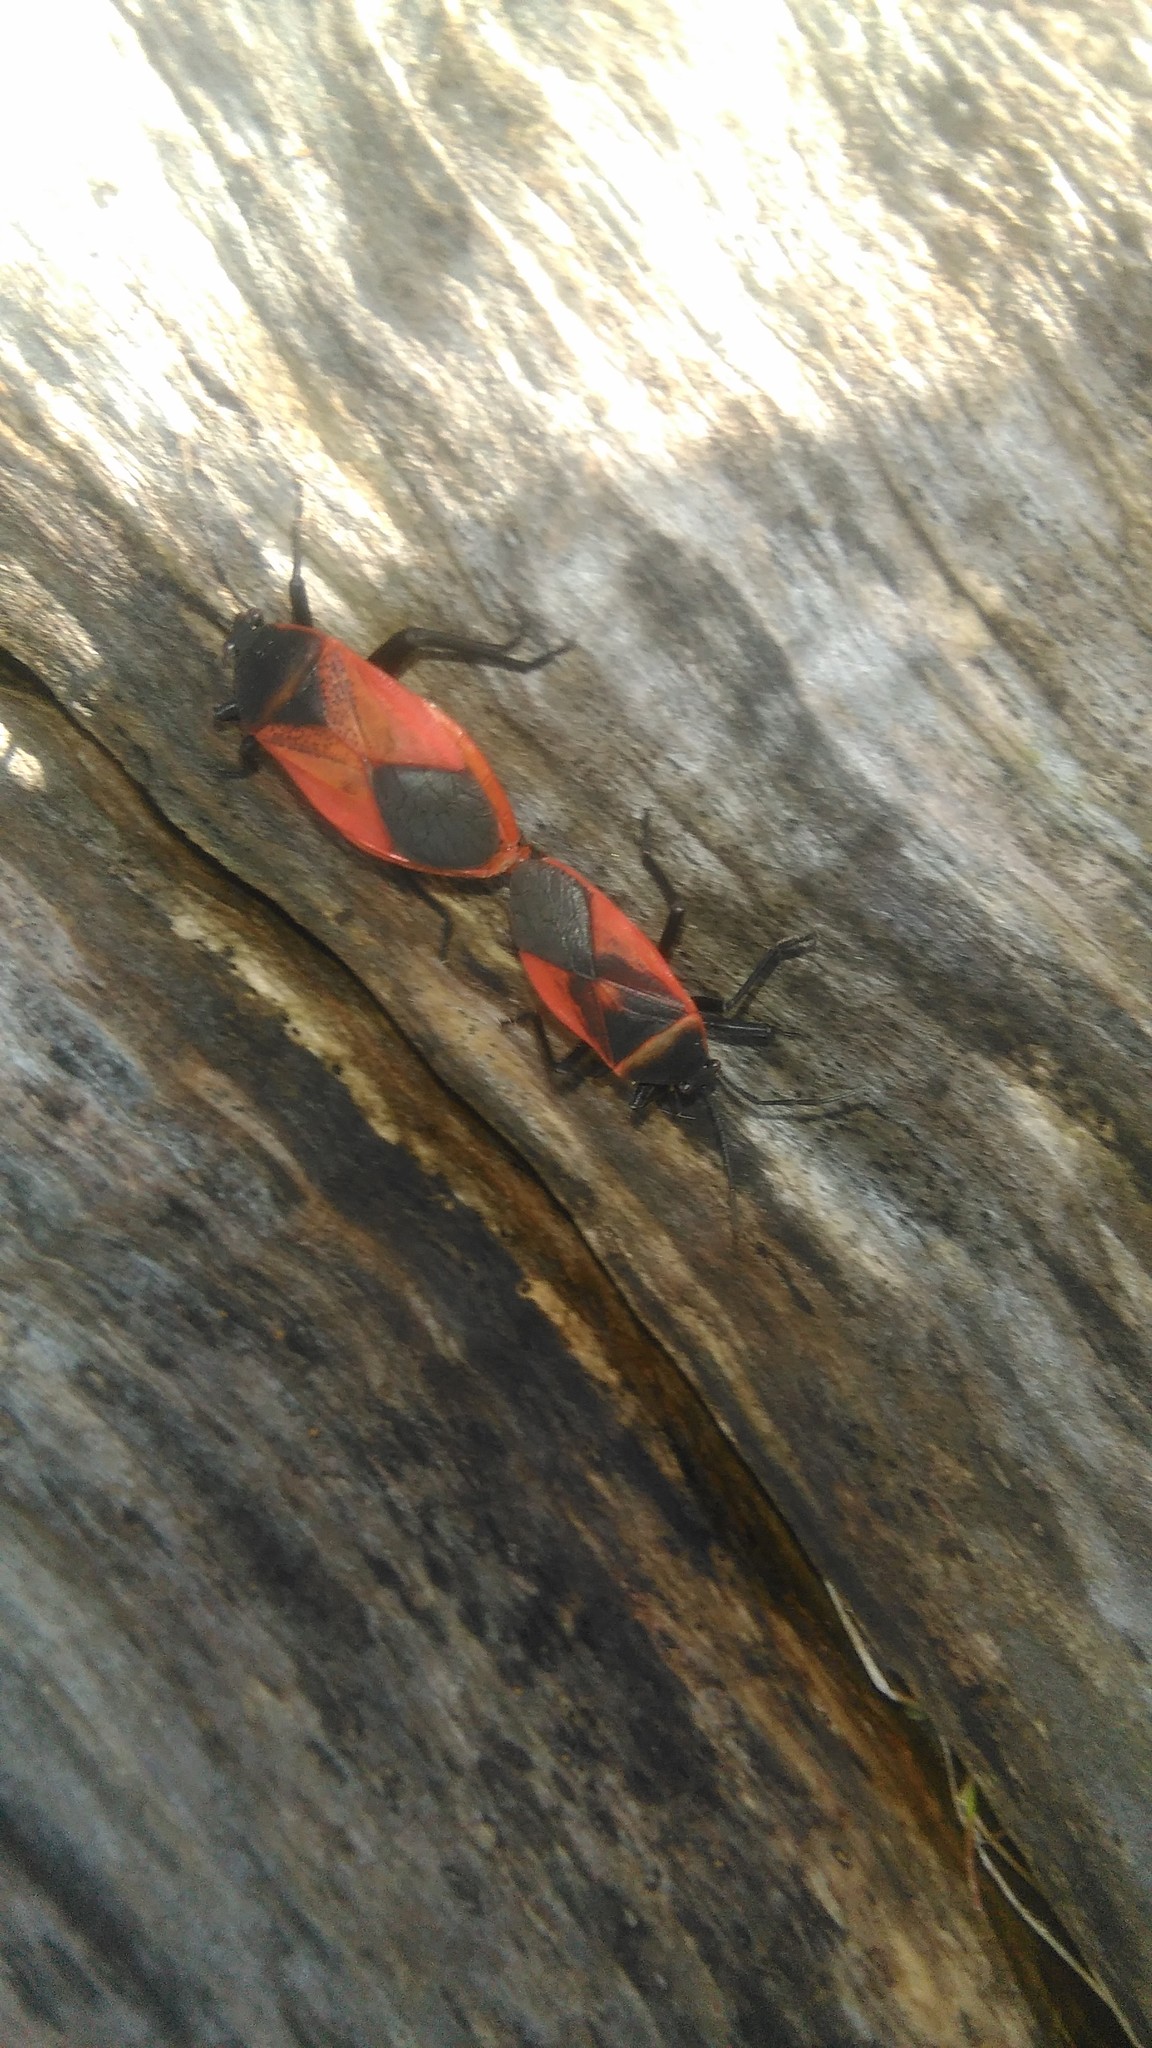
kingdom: Animalia
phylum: Arthropoda
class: Insecta
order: Hemiptera
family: Largidae
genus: Largus
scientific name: Largus rufipennis
